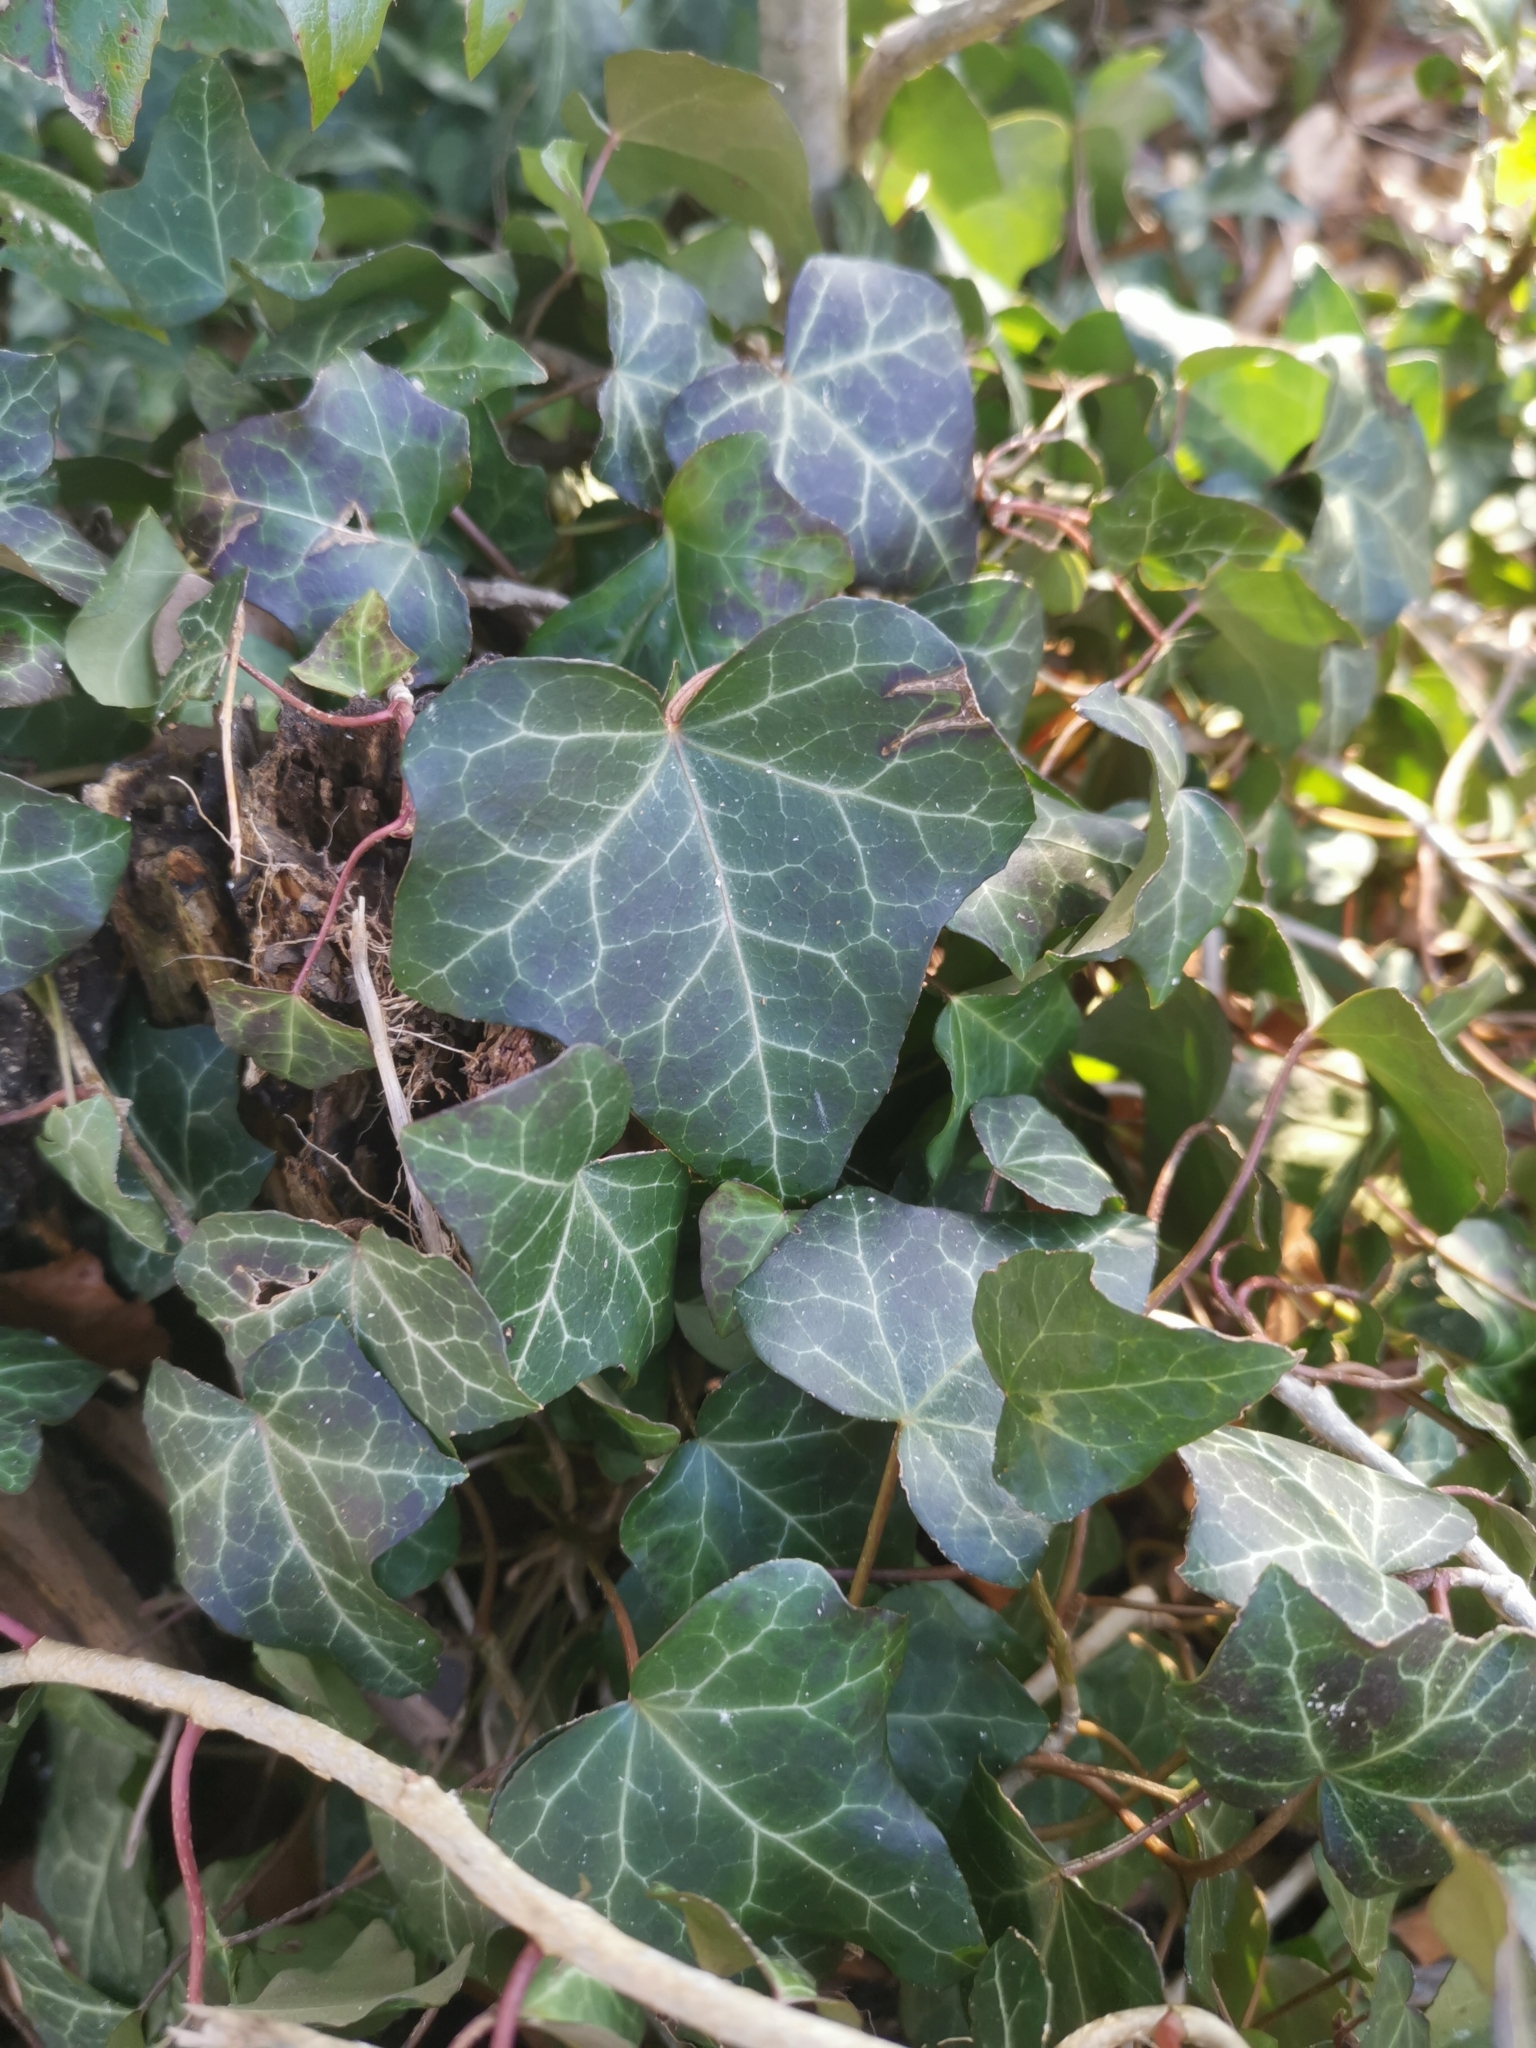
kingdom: Plantae
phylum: Tracheophyta
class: Magnoliopsida
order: Apiales
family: Araliaceae
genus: Hedera
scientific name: Hedera helix
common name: Ivy
